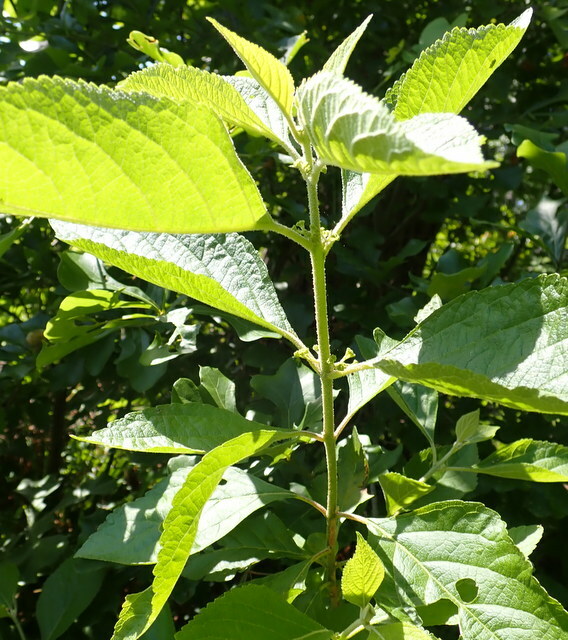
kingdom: Plantae
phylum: Tracheophyta
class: Magnoliopsida
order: Lamiales
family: Lamiaceae
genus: Callicarpa
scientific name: Callicarpa americana
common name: American beautyberry
